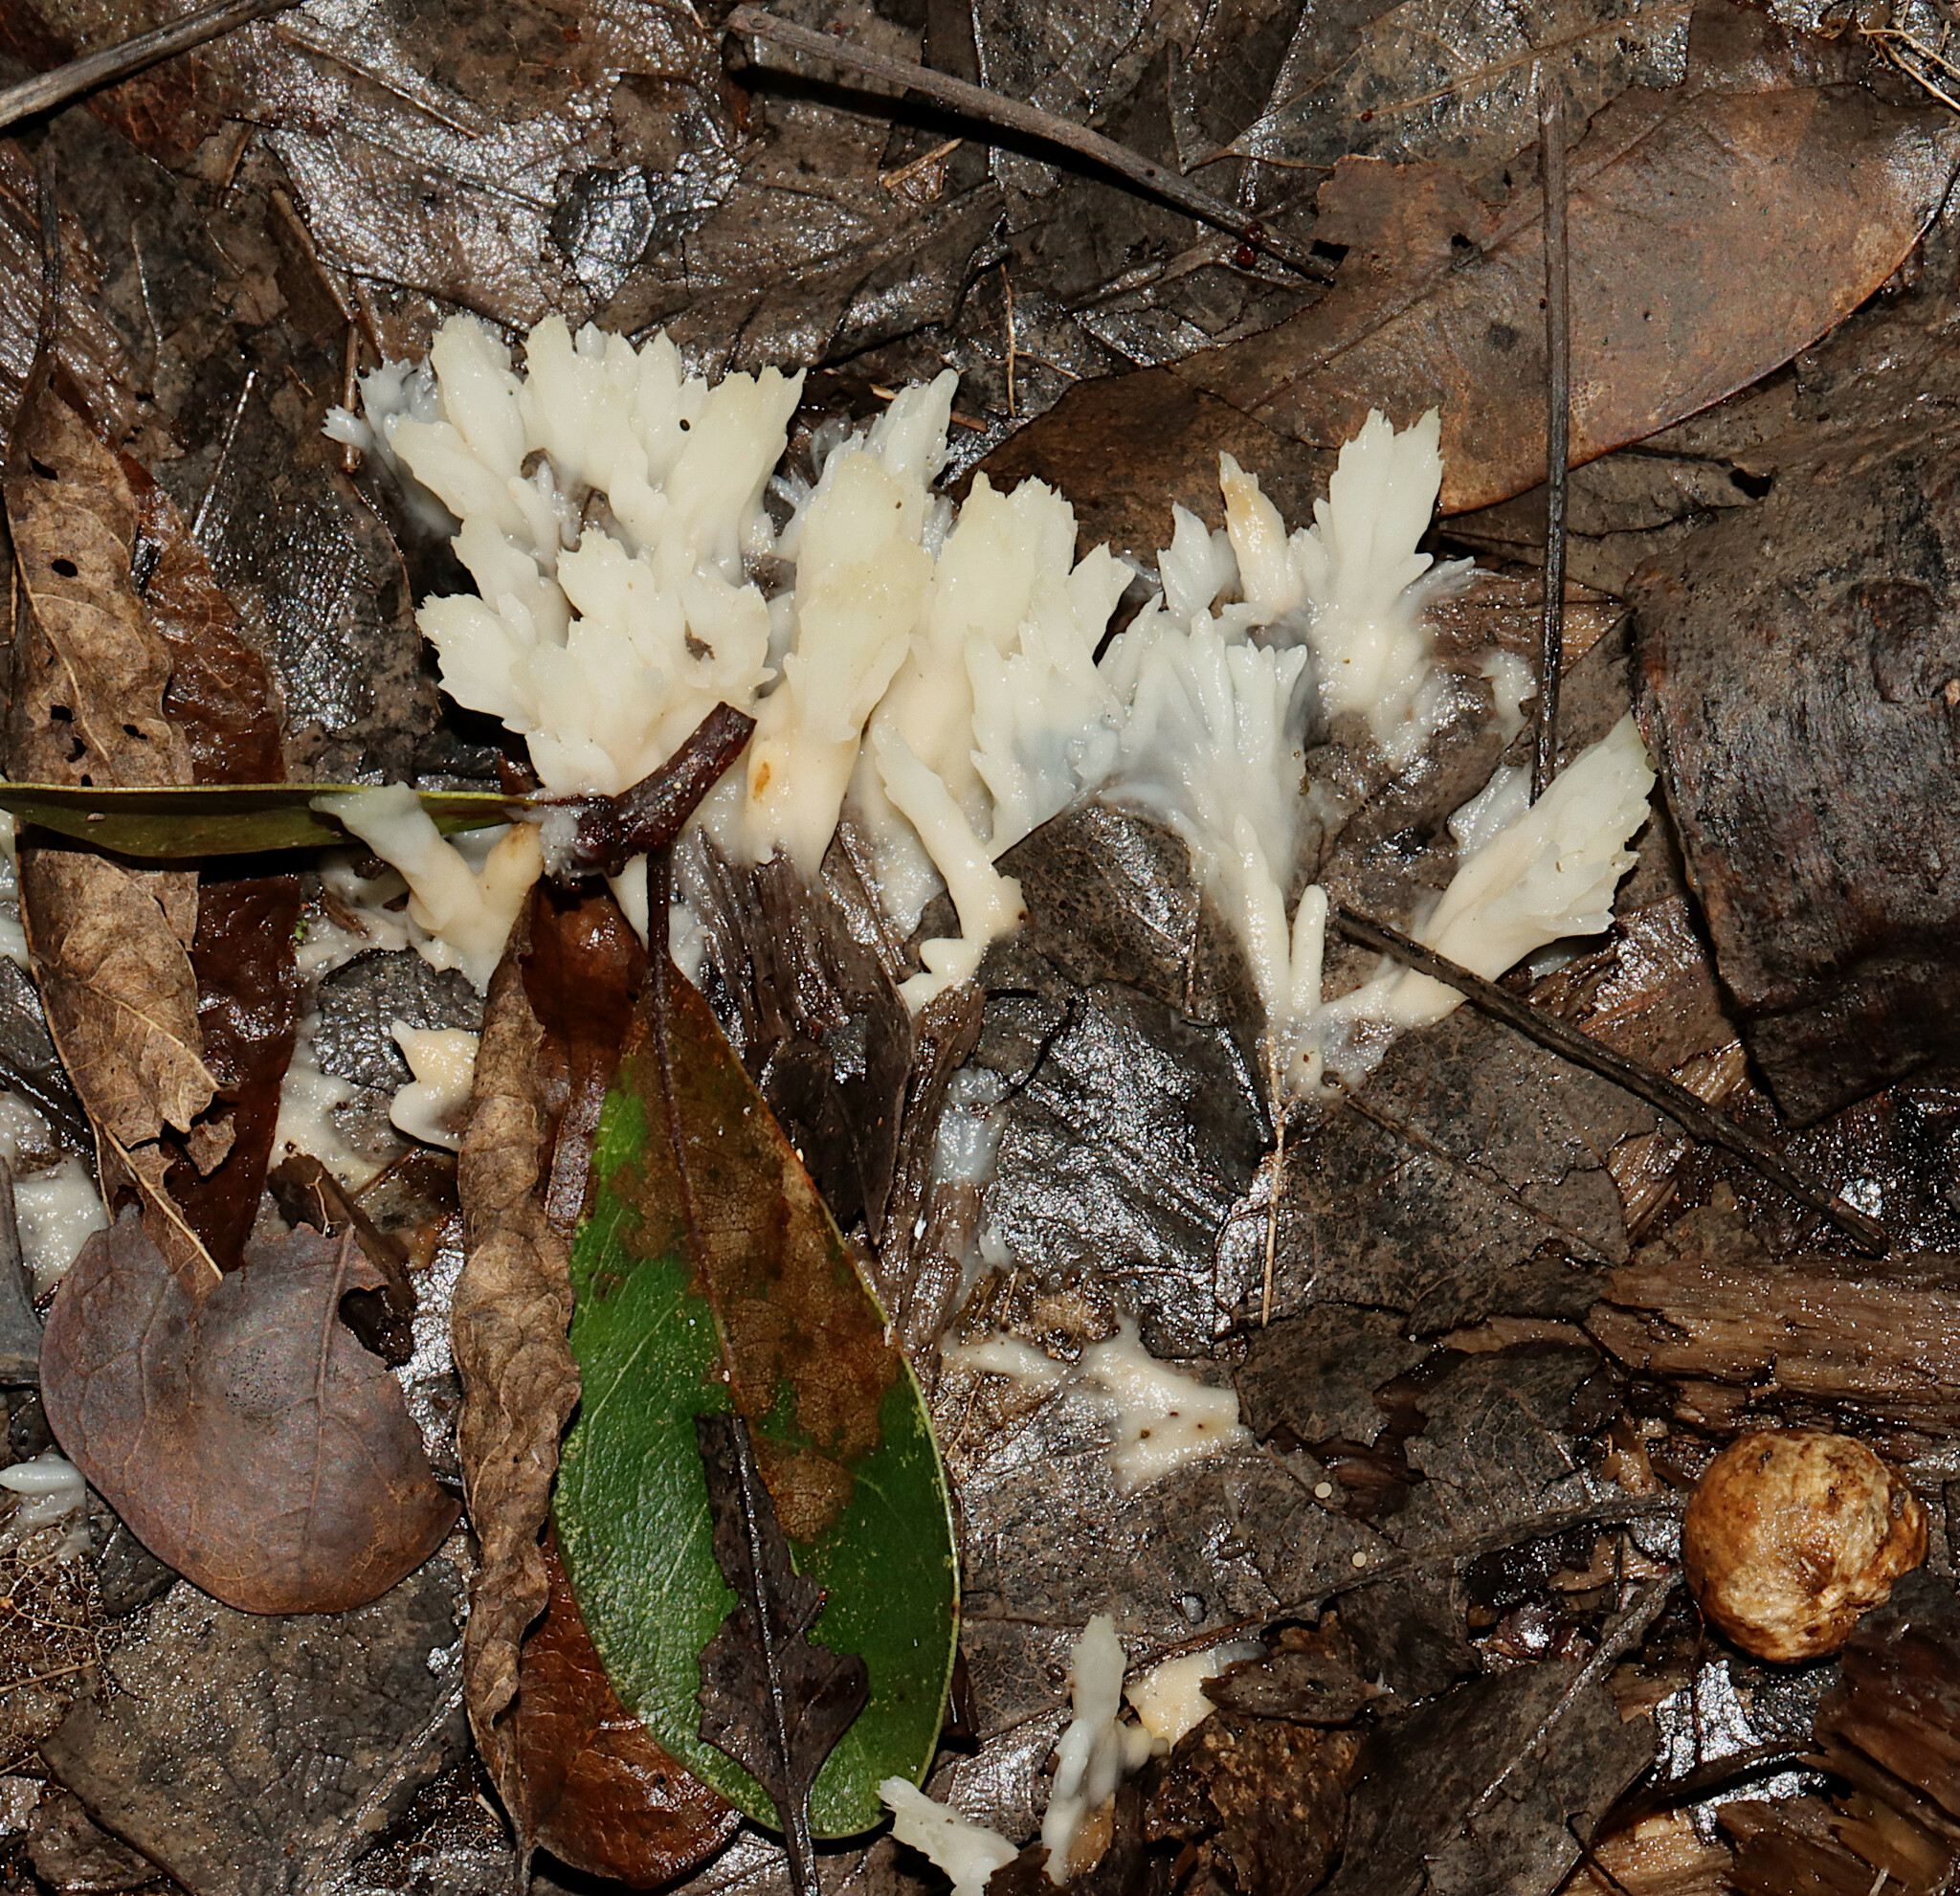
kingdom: Fungi
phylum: Basidiomycota
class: Agaricomycetes
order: Sebacinales
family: Sebacinaceae
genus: Sebacina
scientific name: Sebacina schweinitzii
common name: Jellied false coral fungus
